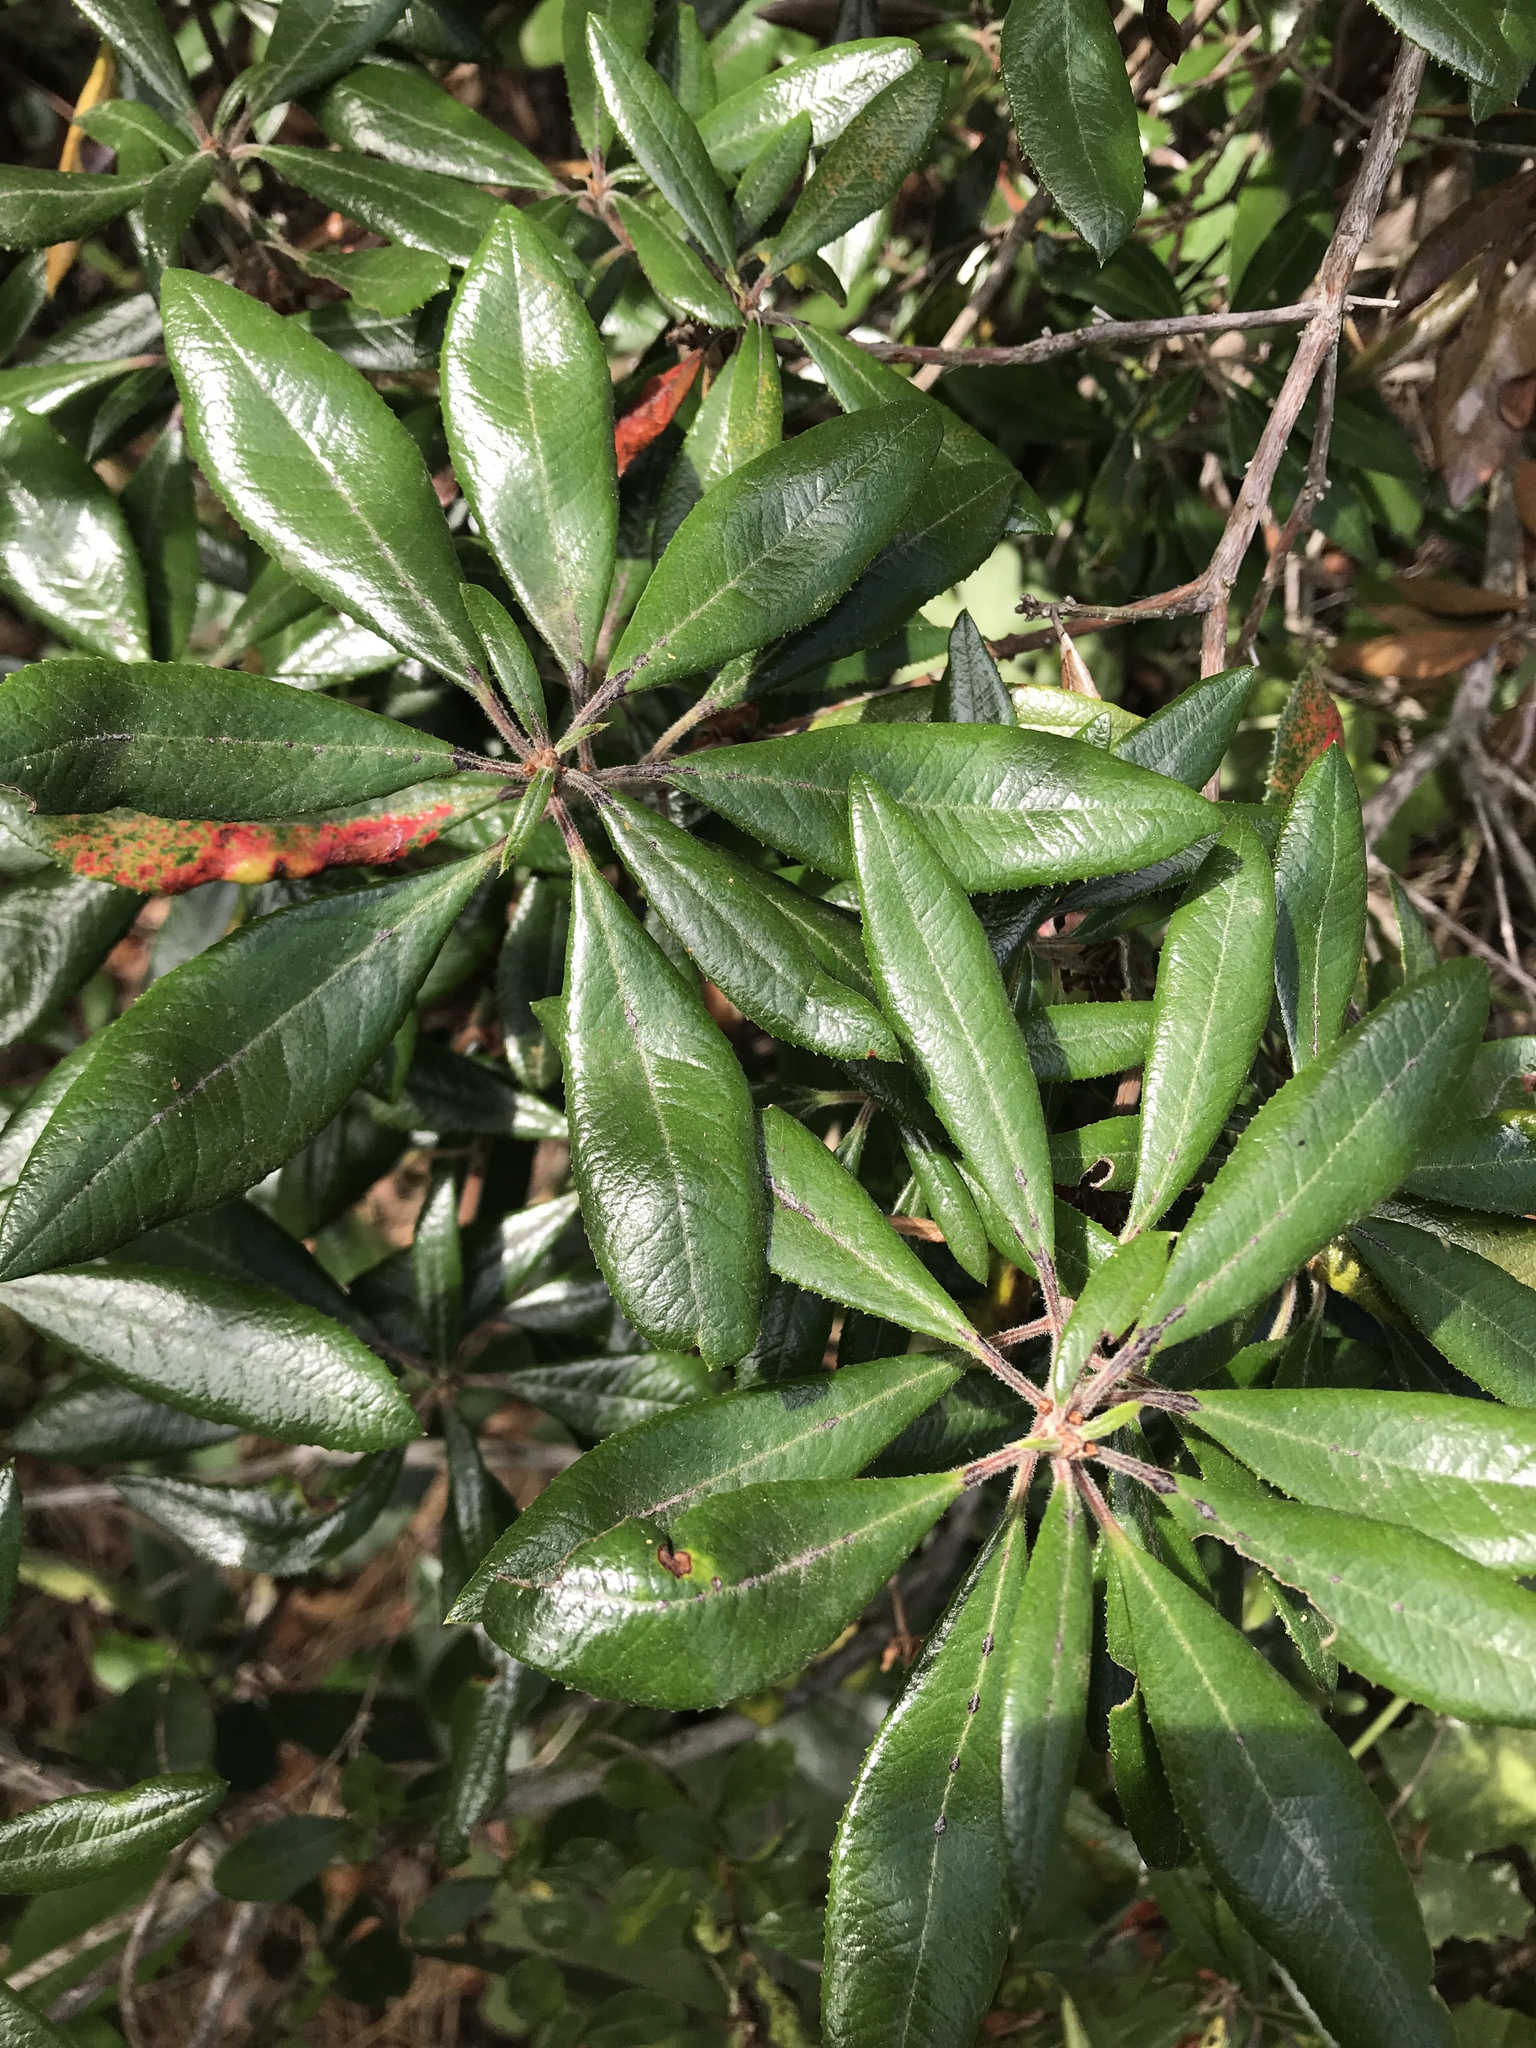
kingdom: Plantae
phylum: Tracheophyta
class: Magnoliopsida
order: Ericales
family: Ericaceae
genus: Comarostaphylis
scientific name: Comarostaphylis diversifolia
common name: Summer-holly
